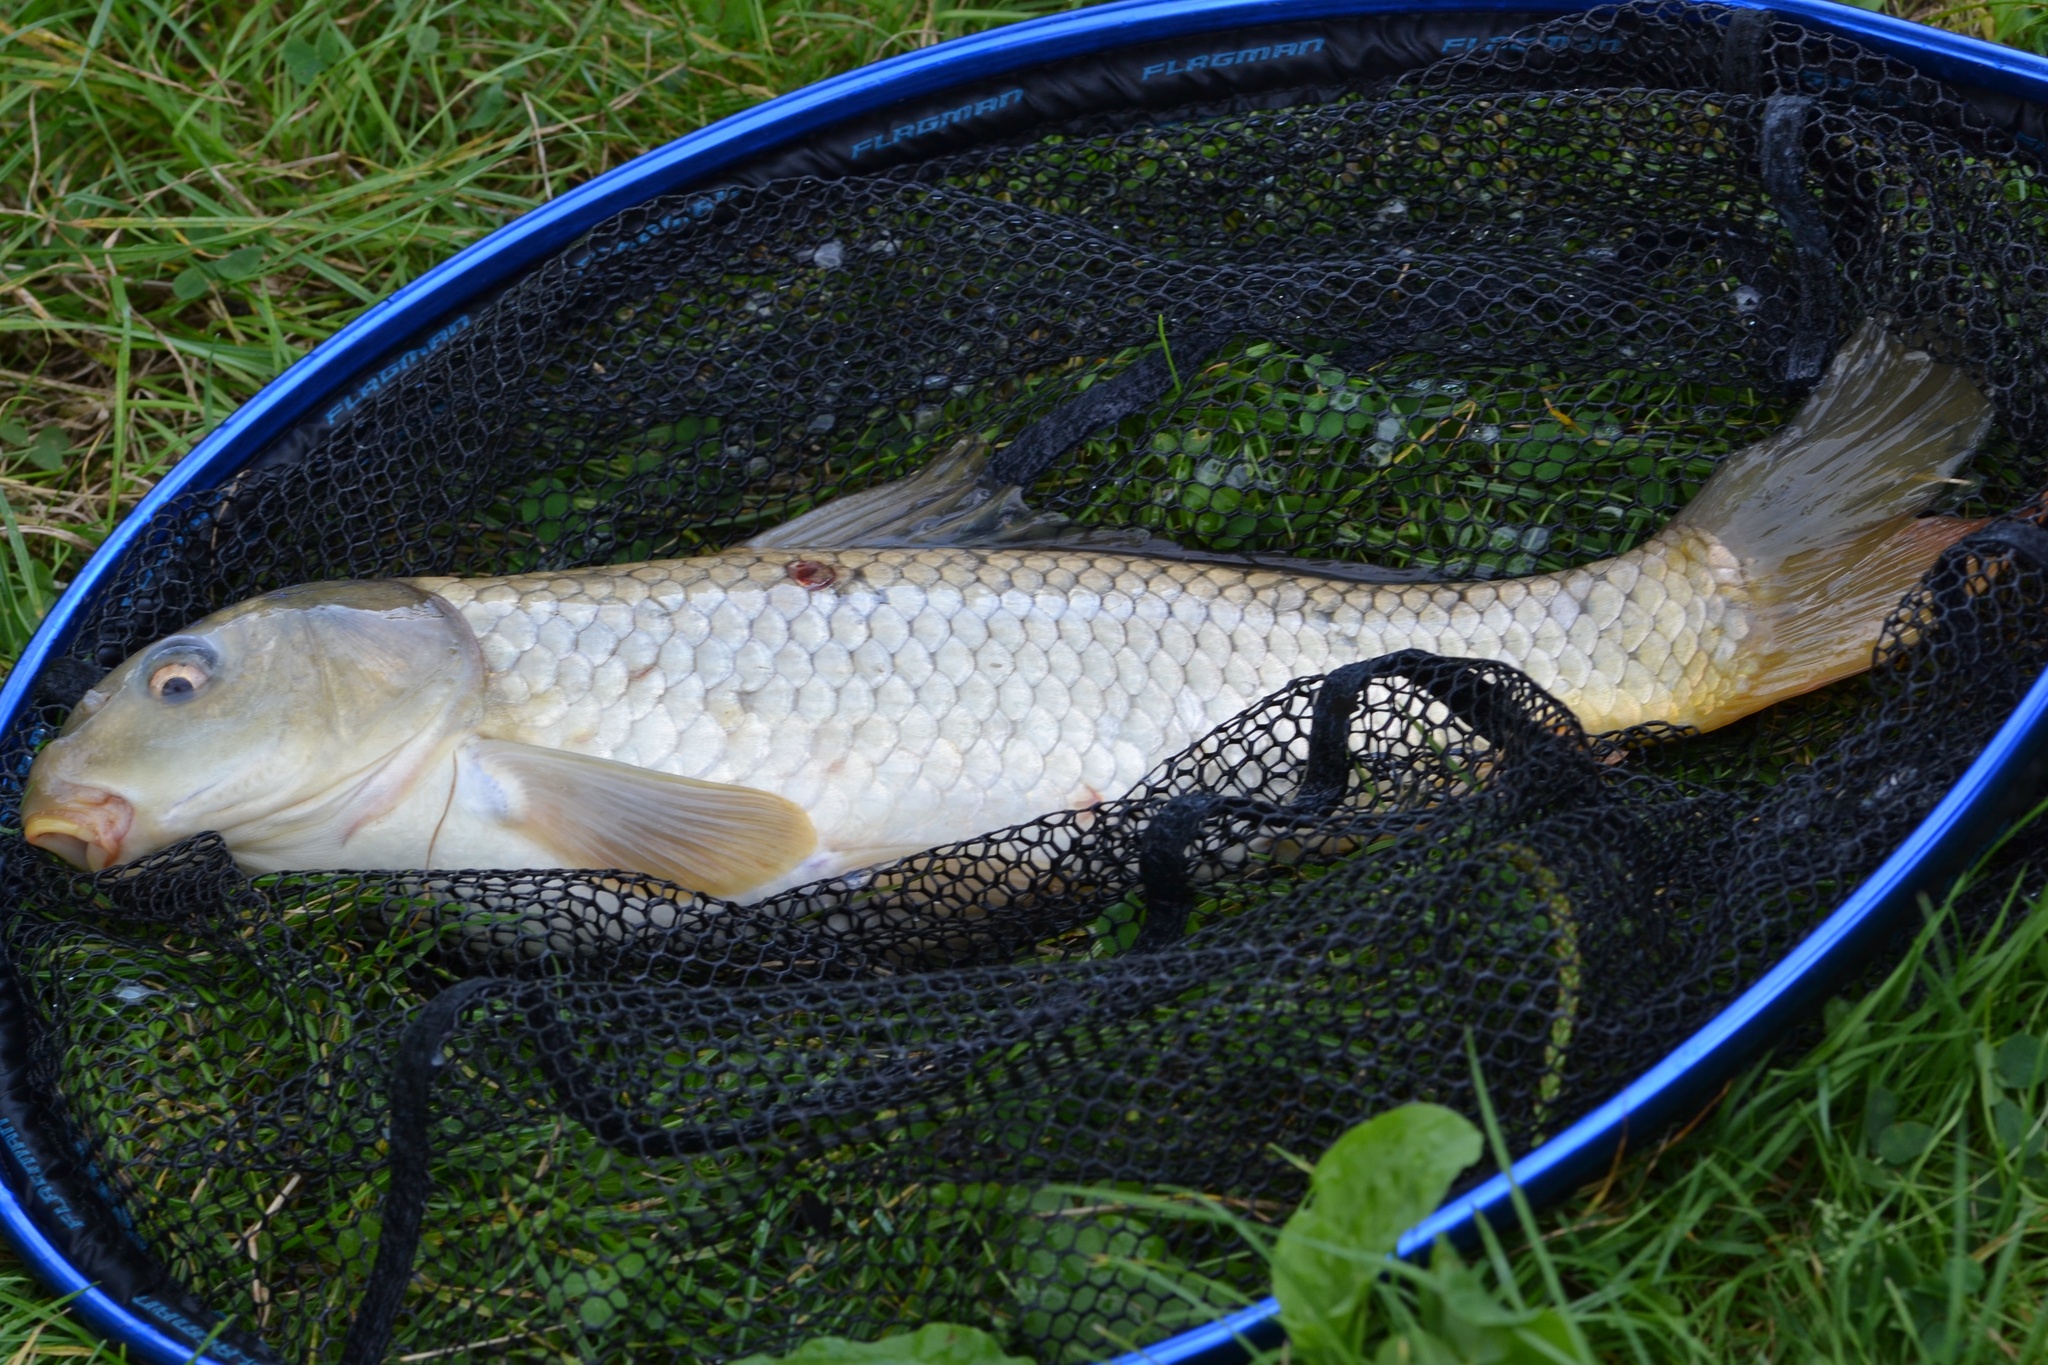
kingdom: Animalia
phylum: Chordata
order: Cypriniformes
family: Cyprinidae
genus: Cyprinus
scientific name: Cyprinus carpio
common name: Common carp
